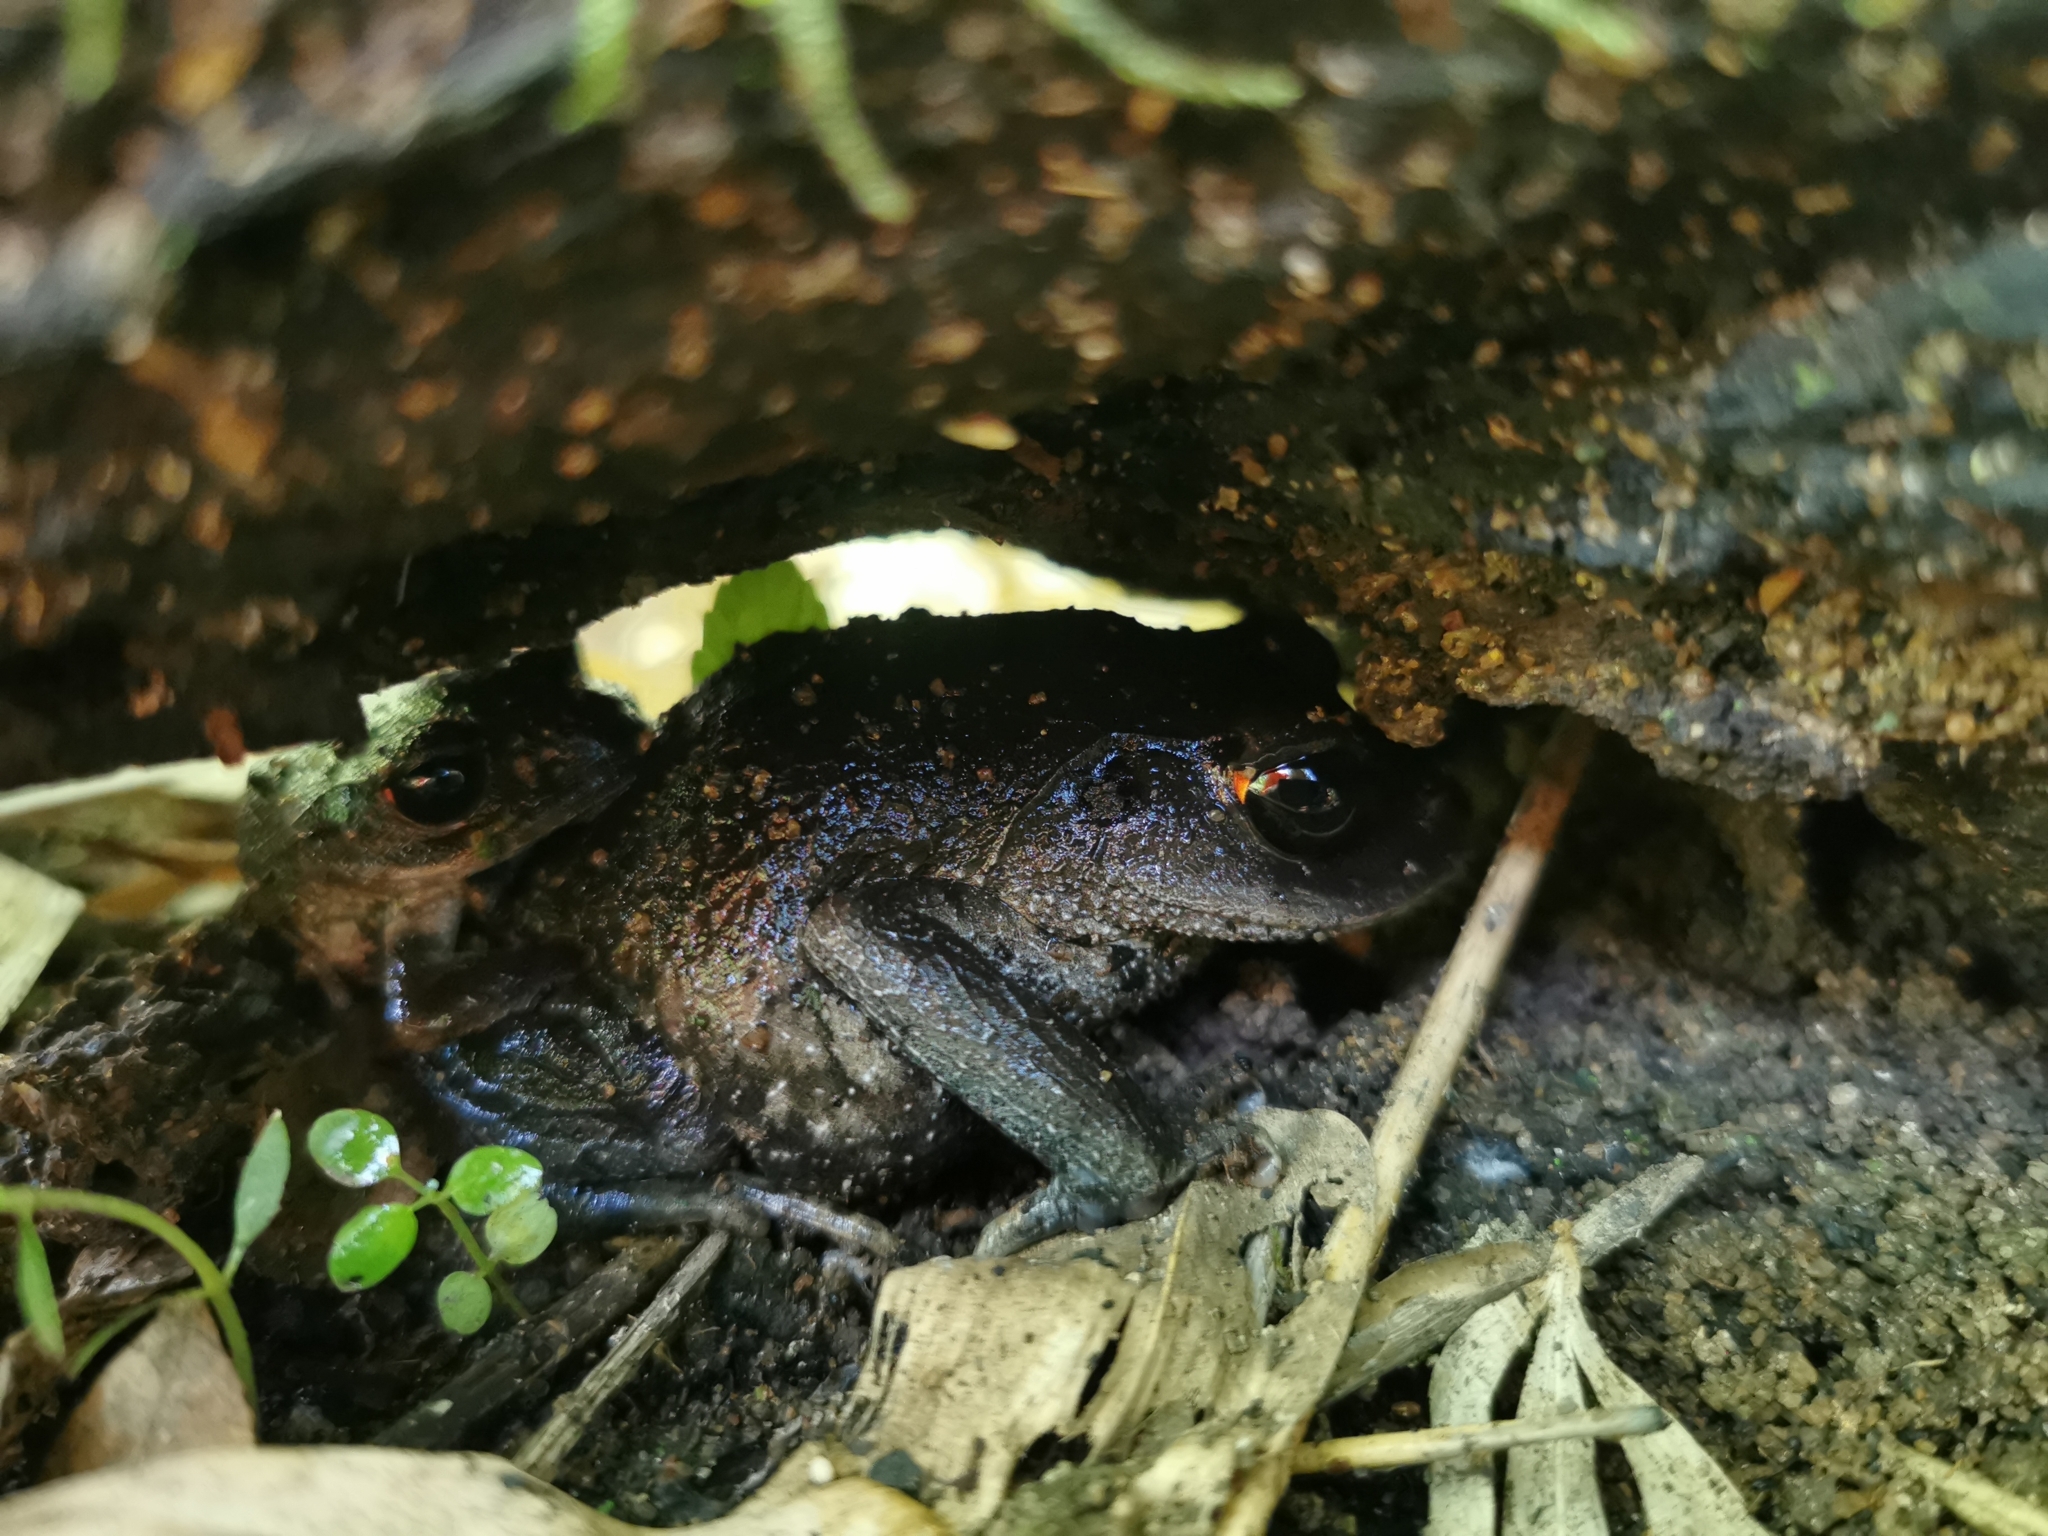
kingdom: Animalia
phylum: Chordata
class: Amphibia
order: Anura
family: Megophryidae
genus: Leptobrachium
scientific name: Leptobrachium lunatum
